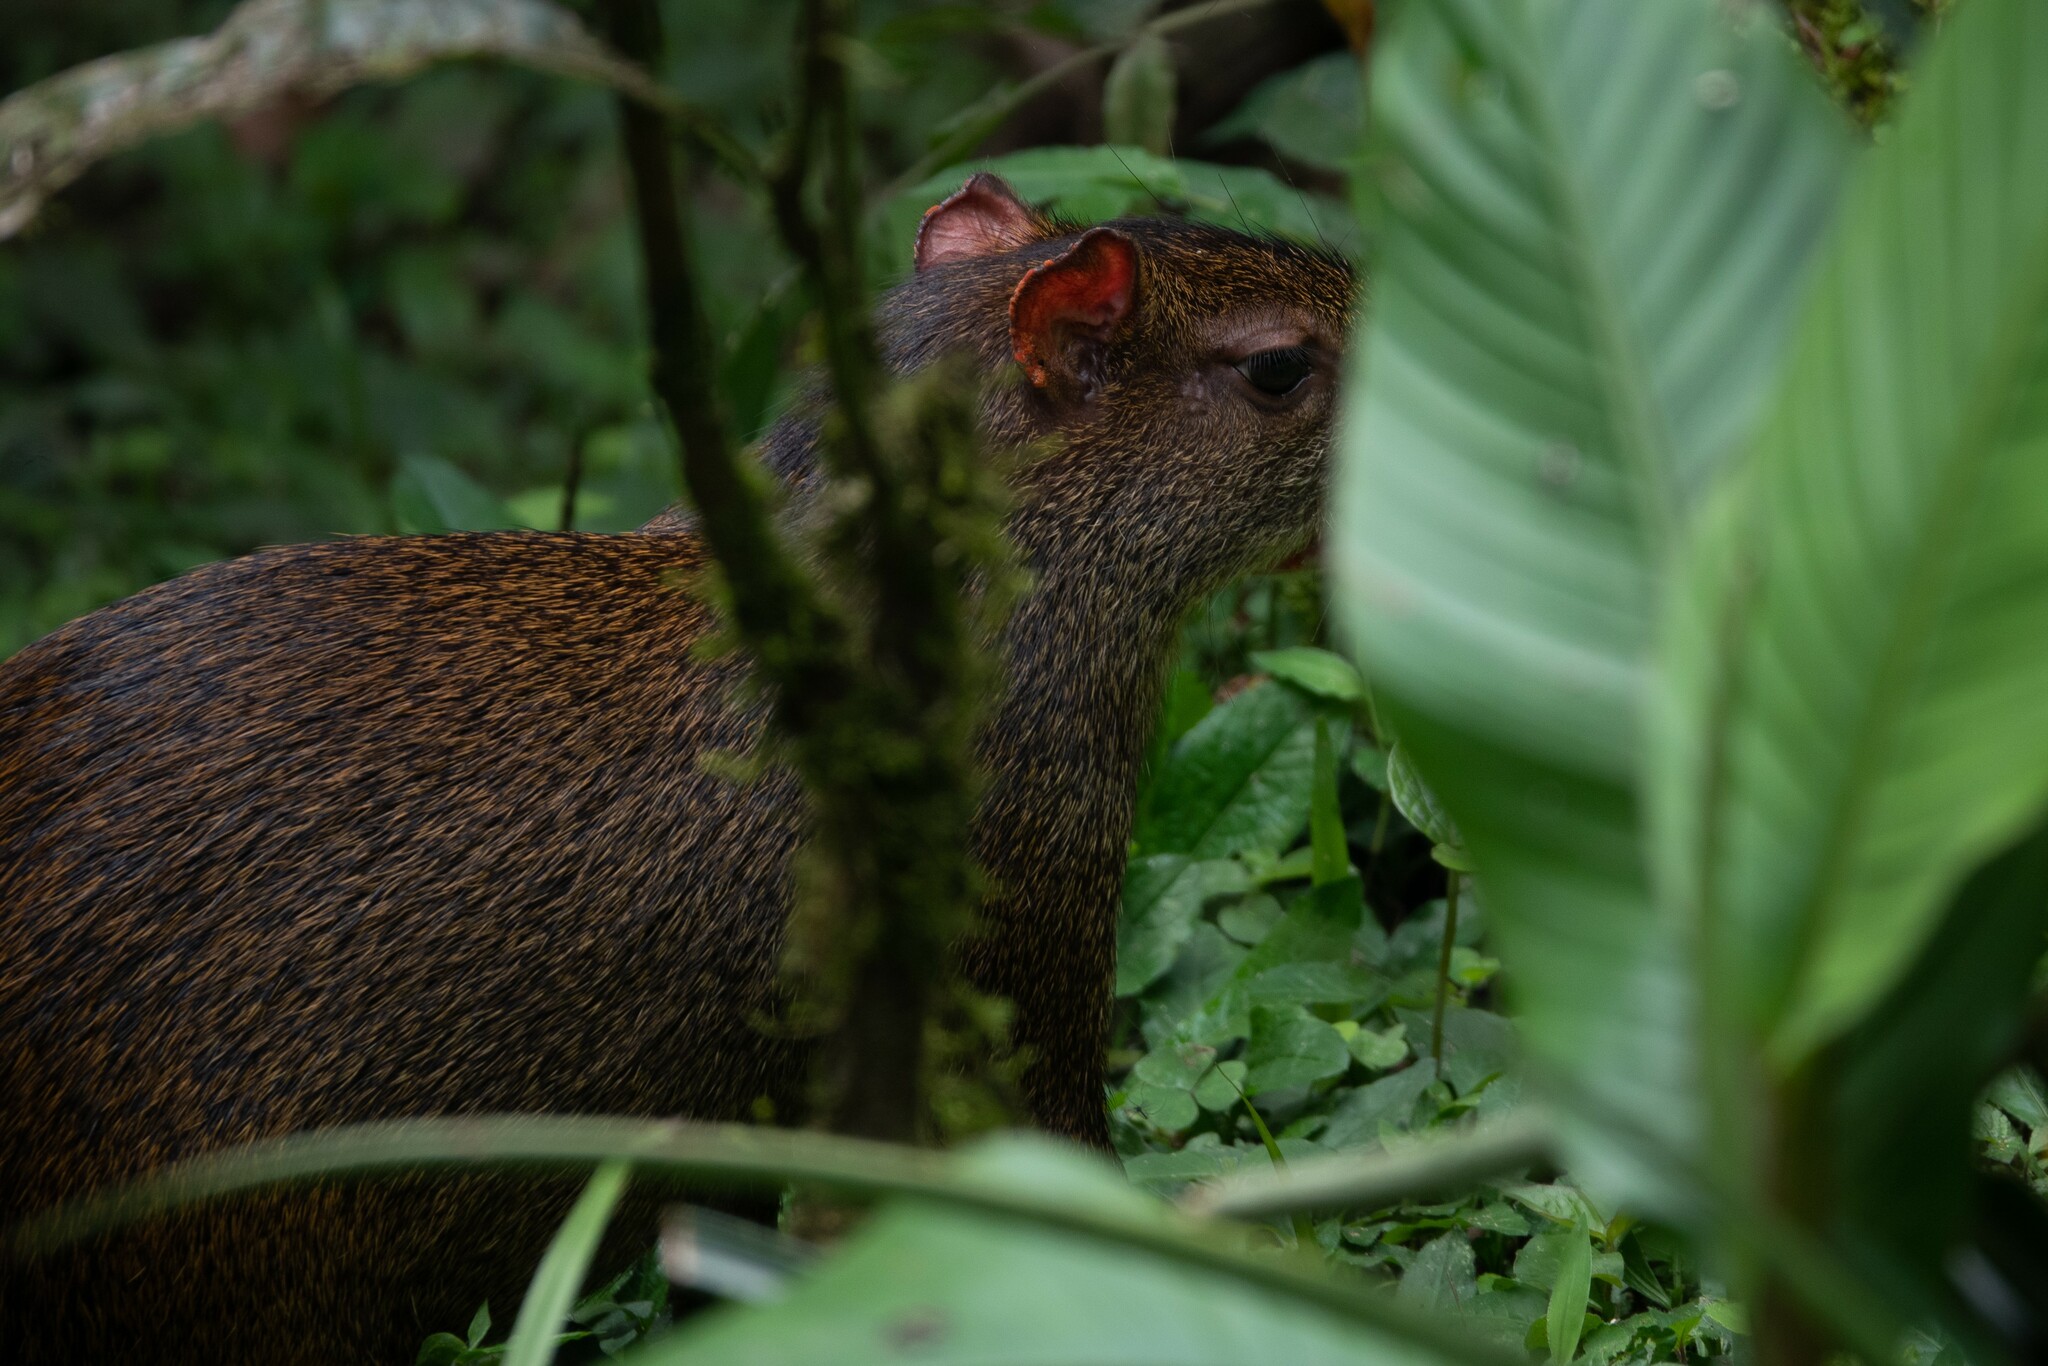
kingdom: Animalia
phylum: Chordata
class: Mammalia
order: Rodentia
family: Dasyproctidae
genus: Dasyprocta
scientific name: Dasyprocta punctata
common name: Central american agouti
